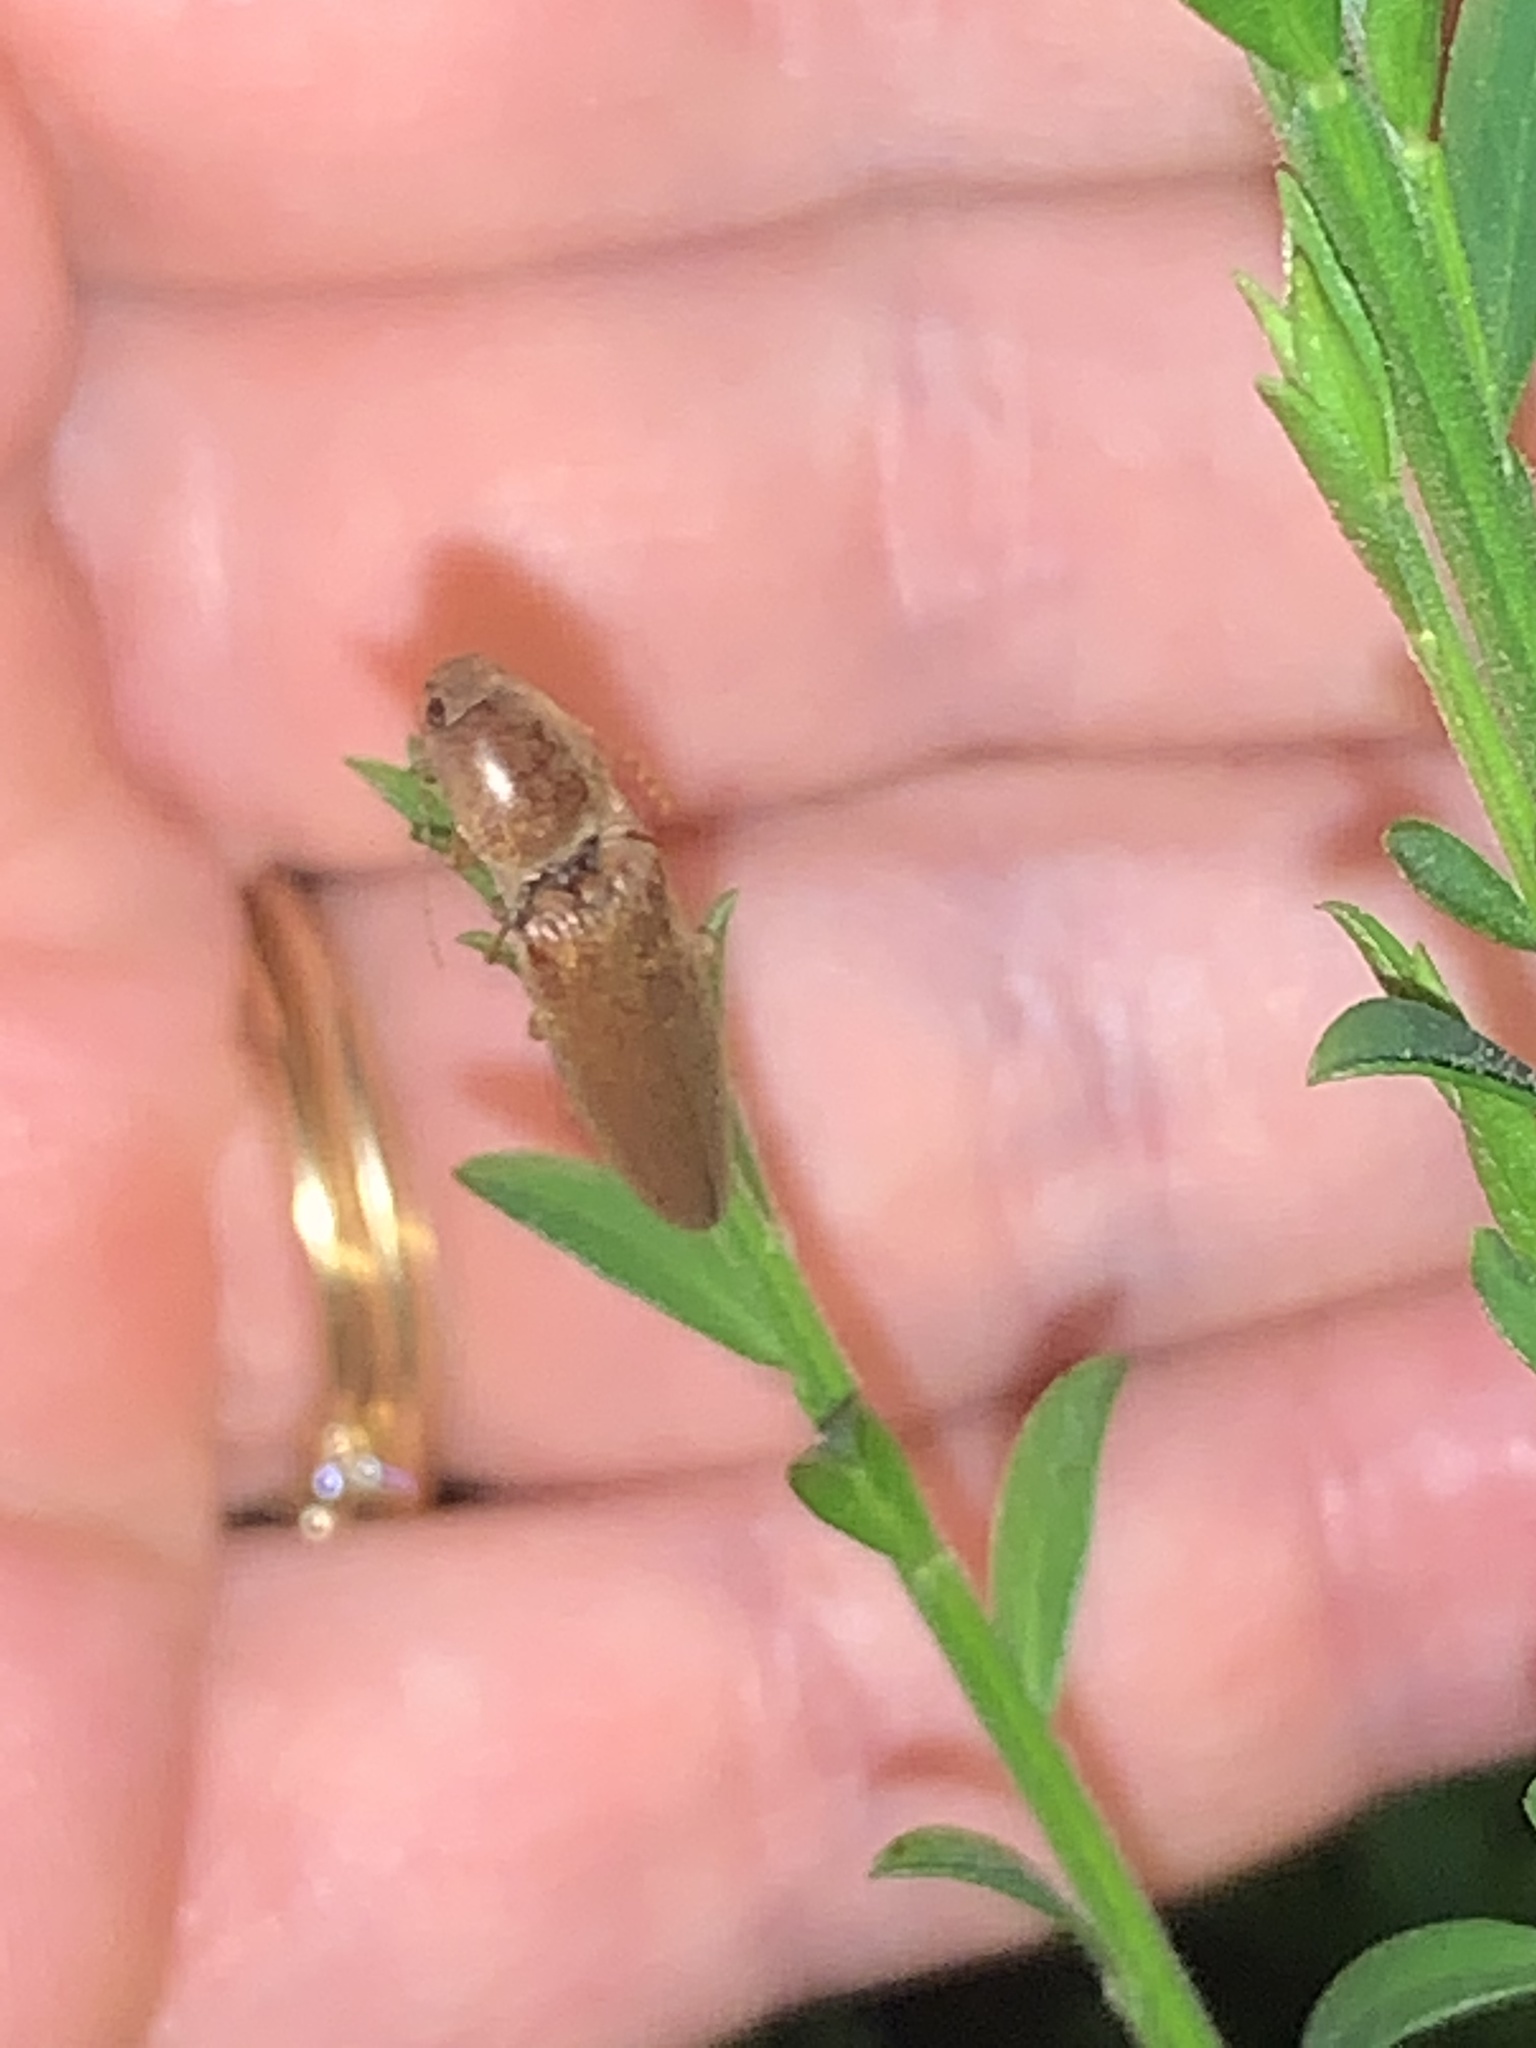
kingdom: Animalia
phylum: Arthropoda
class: Insecta
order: Coleoptera
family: Elateridae
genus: Monocrepidius
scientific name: Monocrepidius lividus
